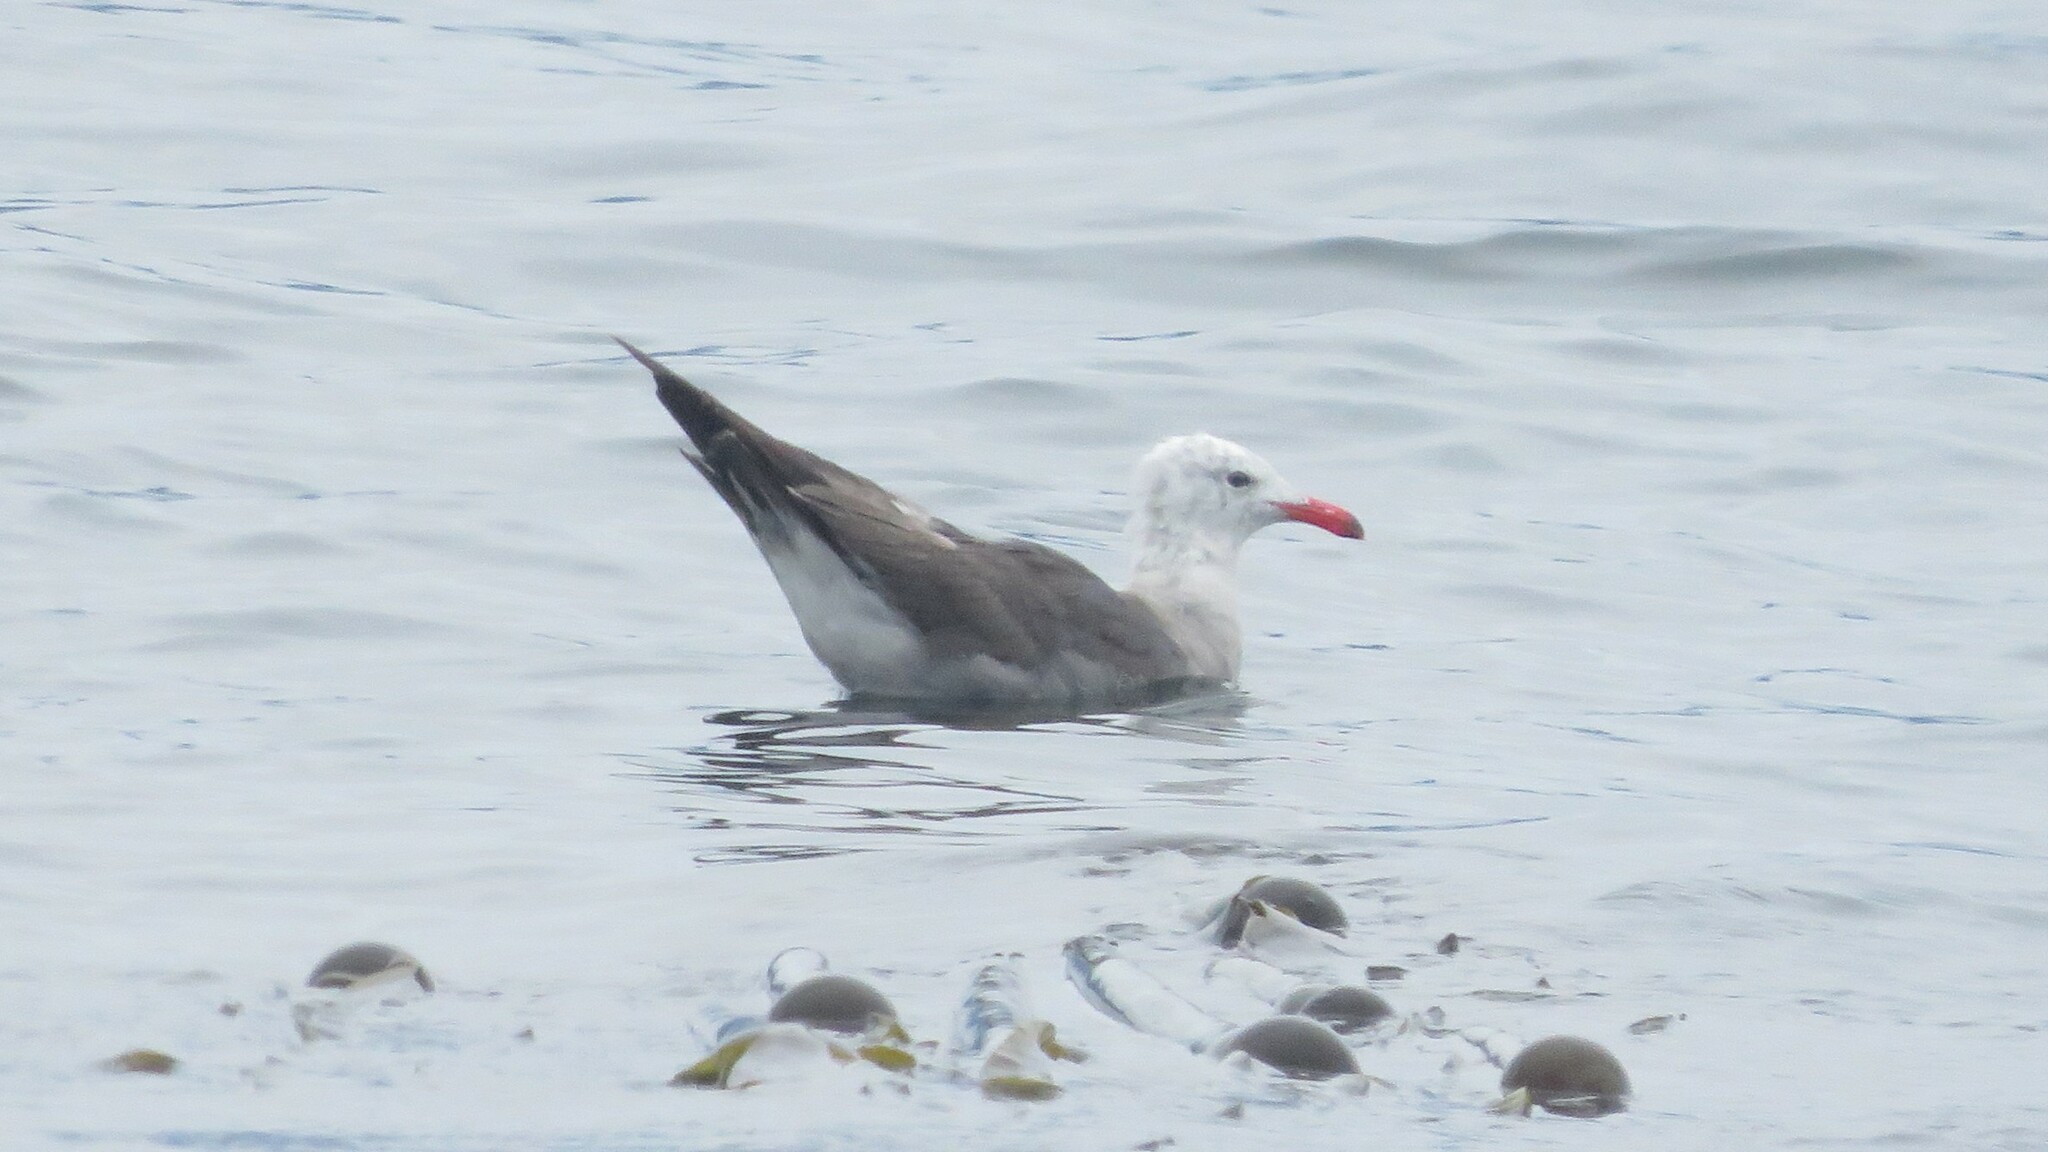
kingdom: Animalia
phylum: Chordata
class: Aves
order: Charadriiformes
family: Laridae
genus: Larus
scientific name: Larus heermanni
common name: Heermann's gull
